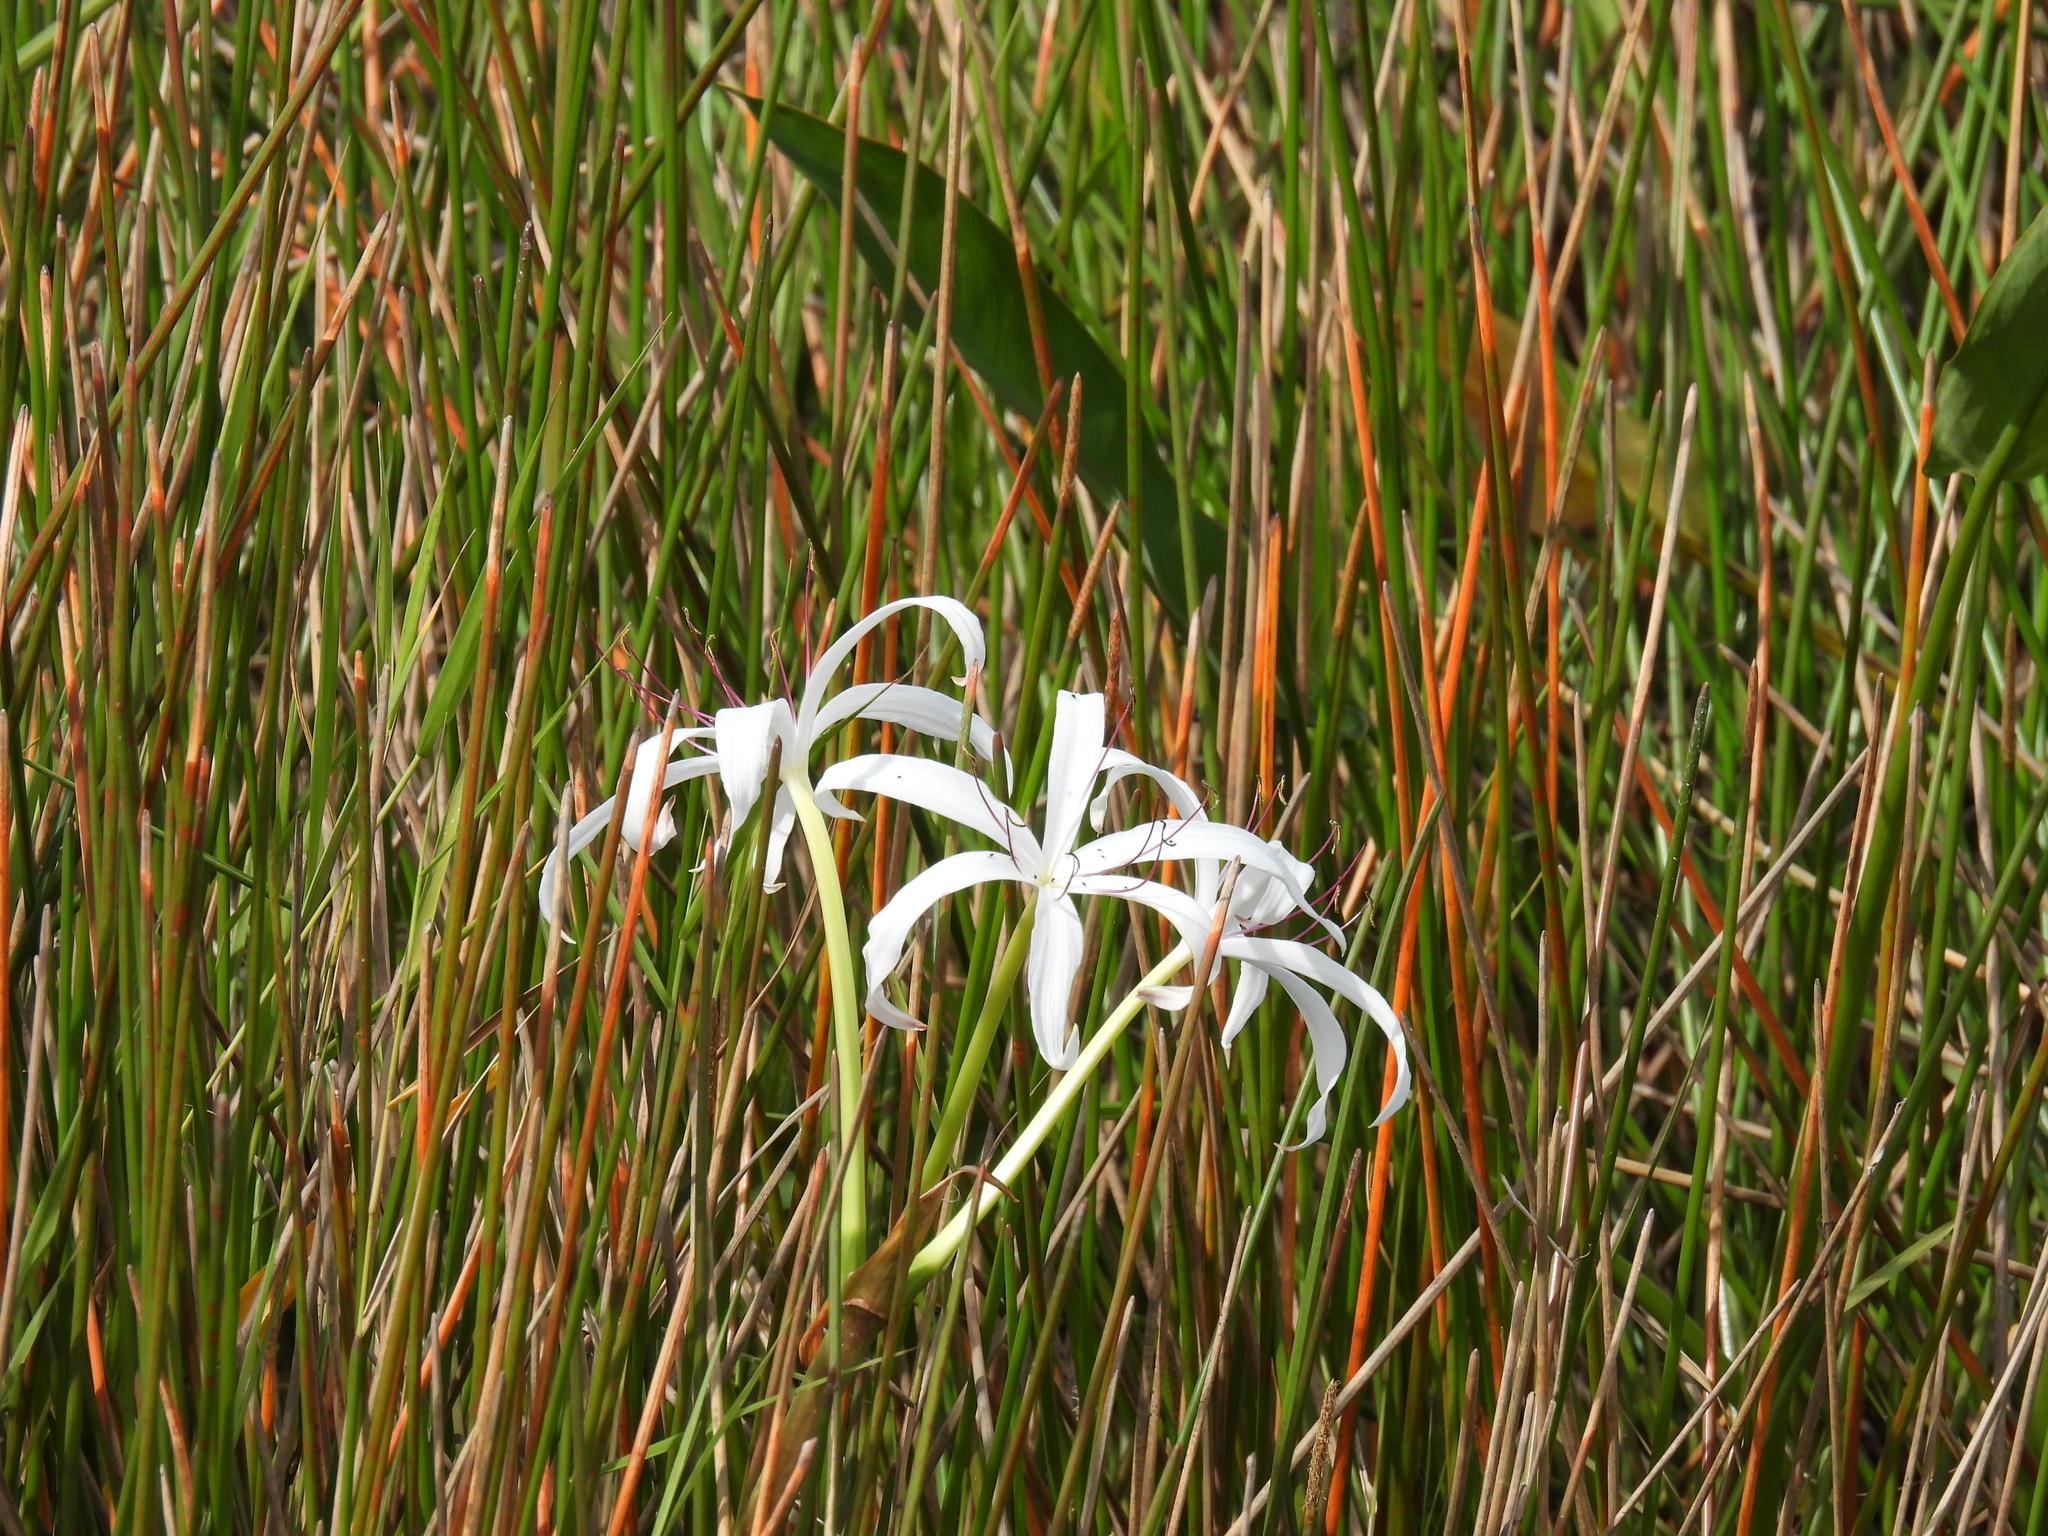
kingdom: Plantae
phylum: Tracheophyta
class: Liliopsida
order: Asparagales
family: Amaryllidaceae
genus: Crinum
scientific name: Crinum americanum
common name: Florida swamp-lily
